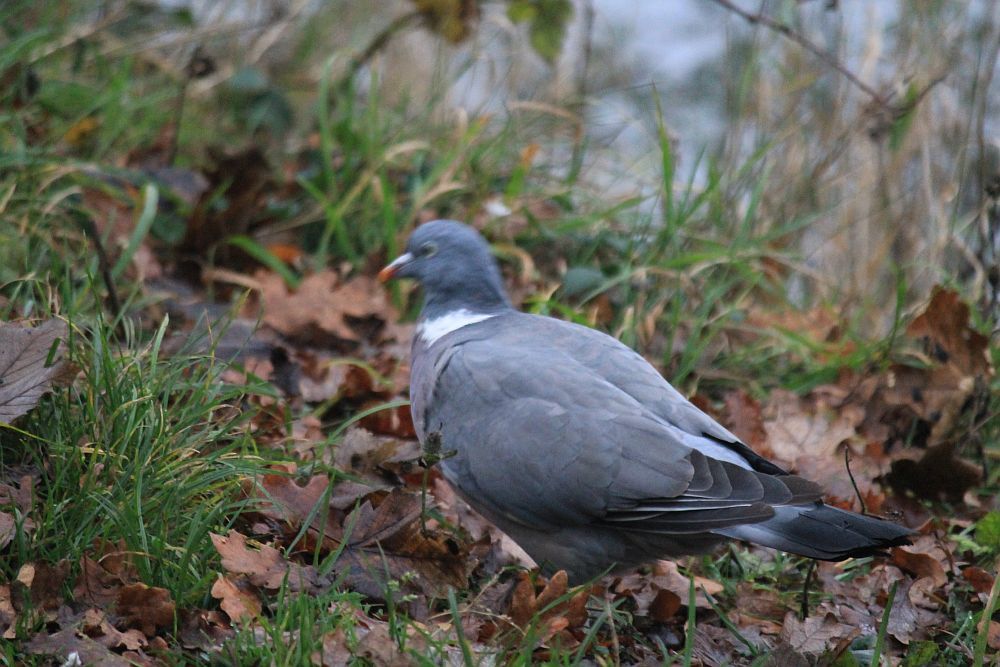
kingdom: Animalia
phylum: Chordata
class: Aves
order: Columbiformes
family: Columbidae
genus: Columba
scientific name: Columba palumbus
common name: Common wood pigeon
